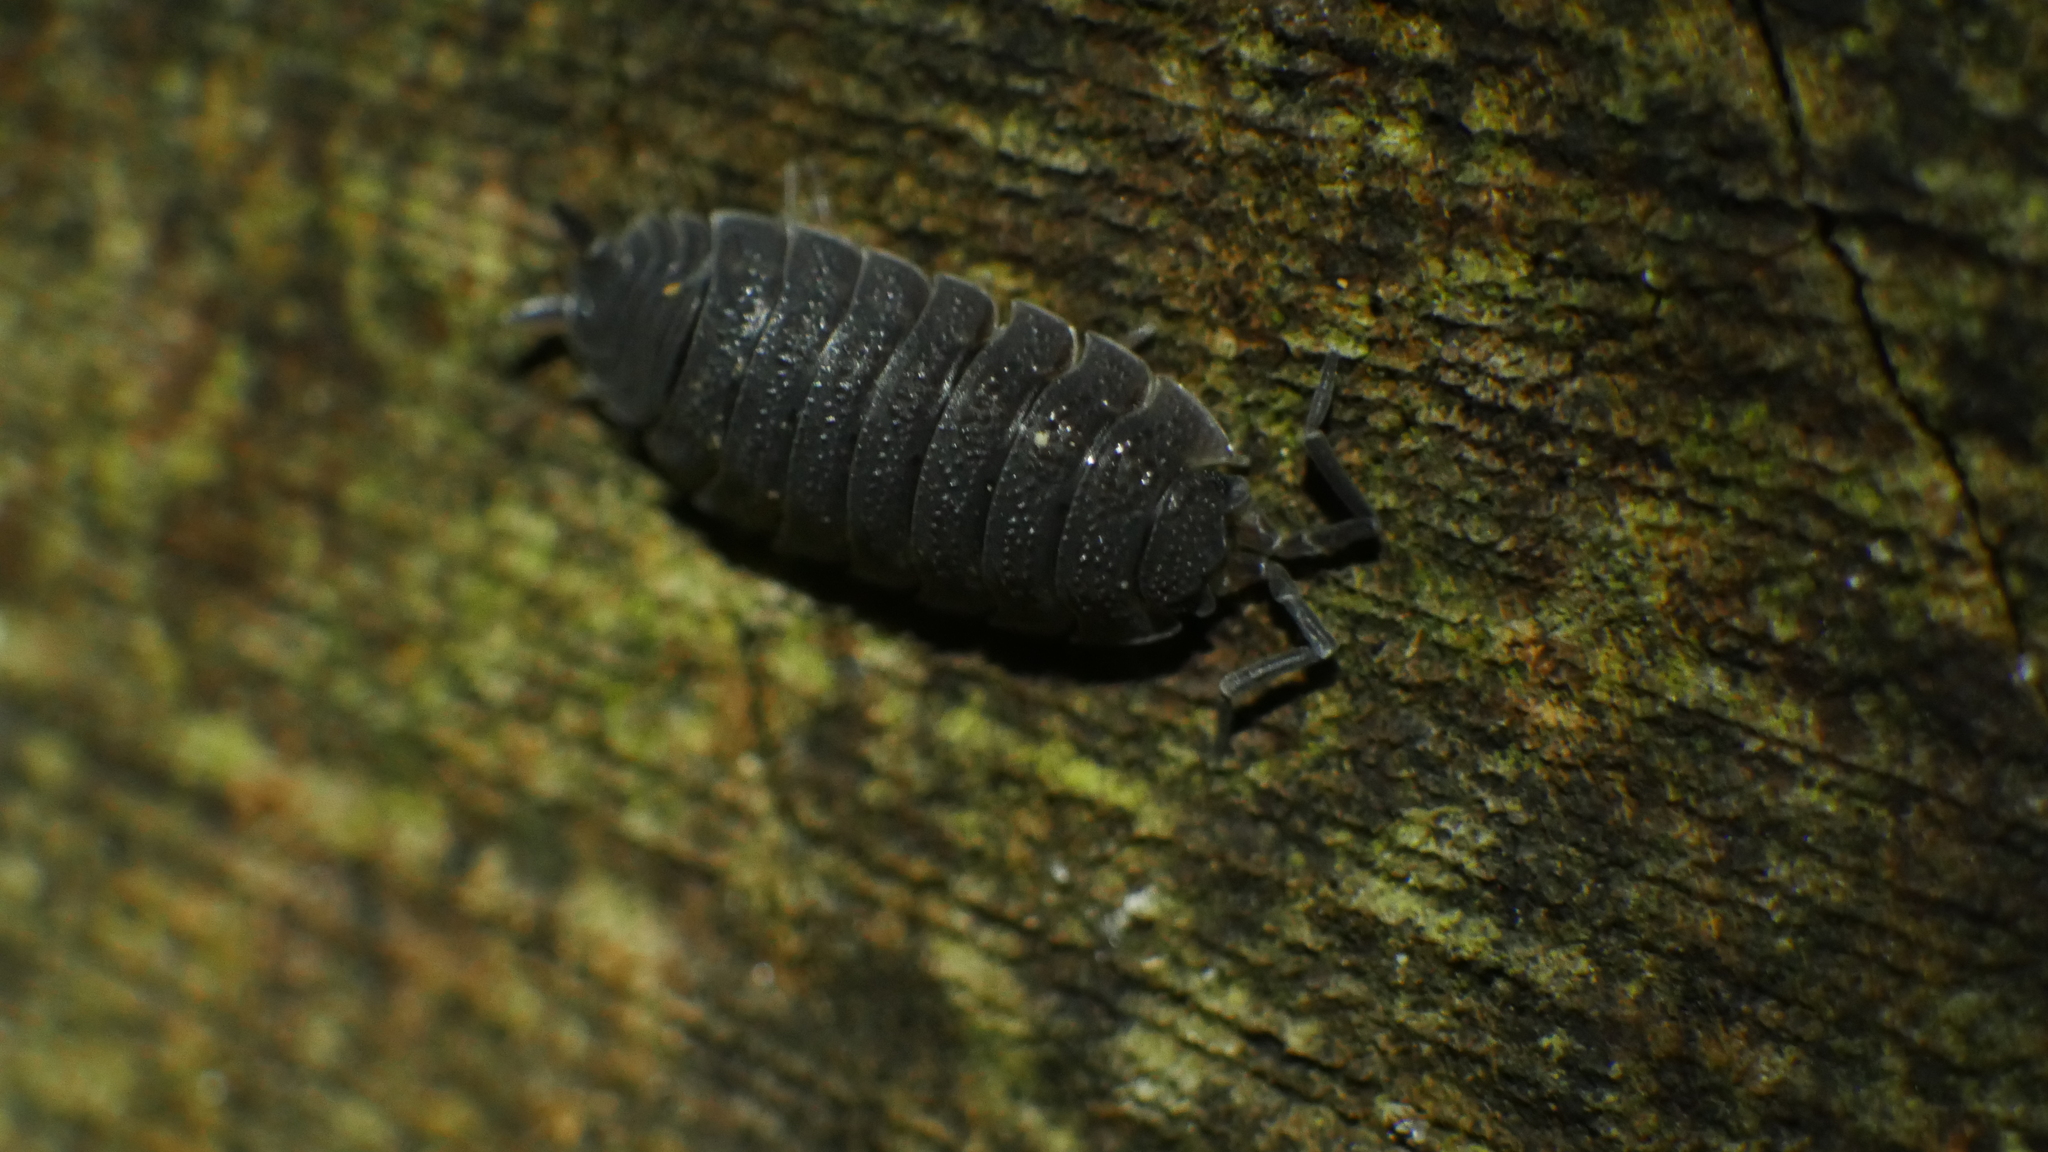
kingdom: Animalia
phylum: Arthropoda
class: Malacostraca
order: Isopoda
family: Porcellionidae
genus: Porcellio
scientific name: Porcellio scaber
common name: Common rough woodlouse
